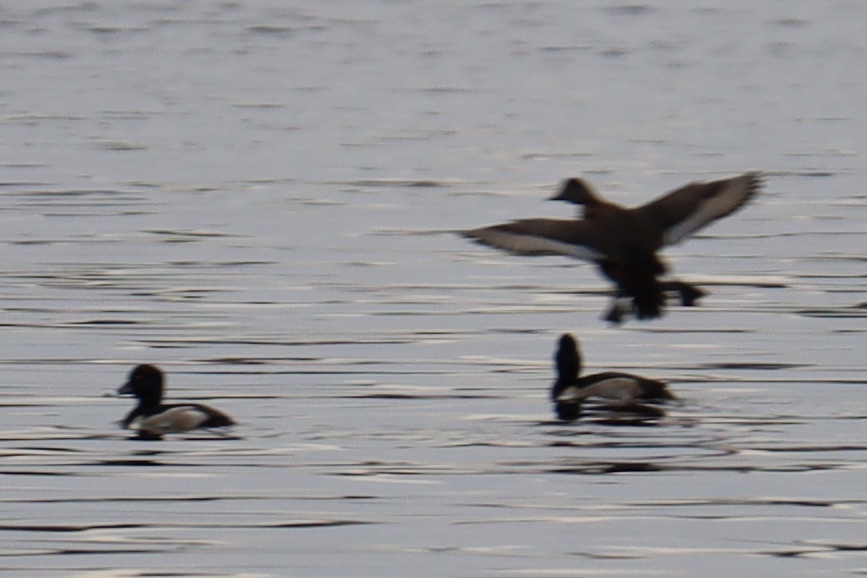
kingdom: Animalia
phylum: Chordata
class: Aves
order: Anseriformes
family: Anatidae
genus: Aythya
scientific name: Aythya collaris
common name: Ring-necked duck
